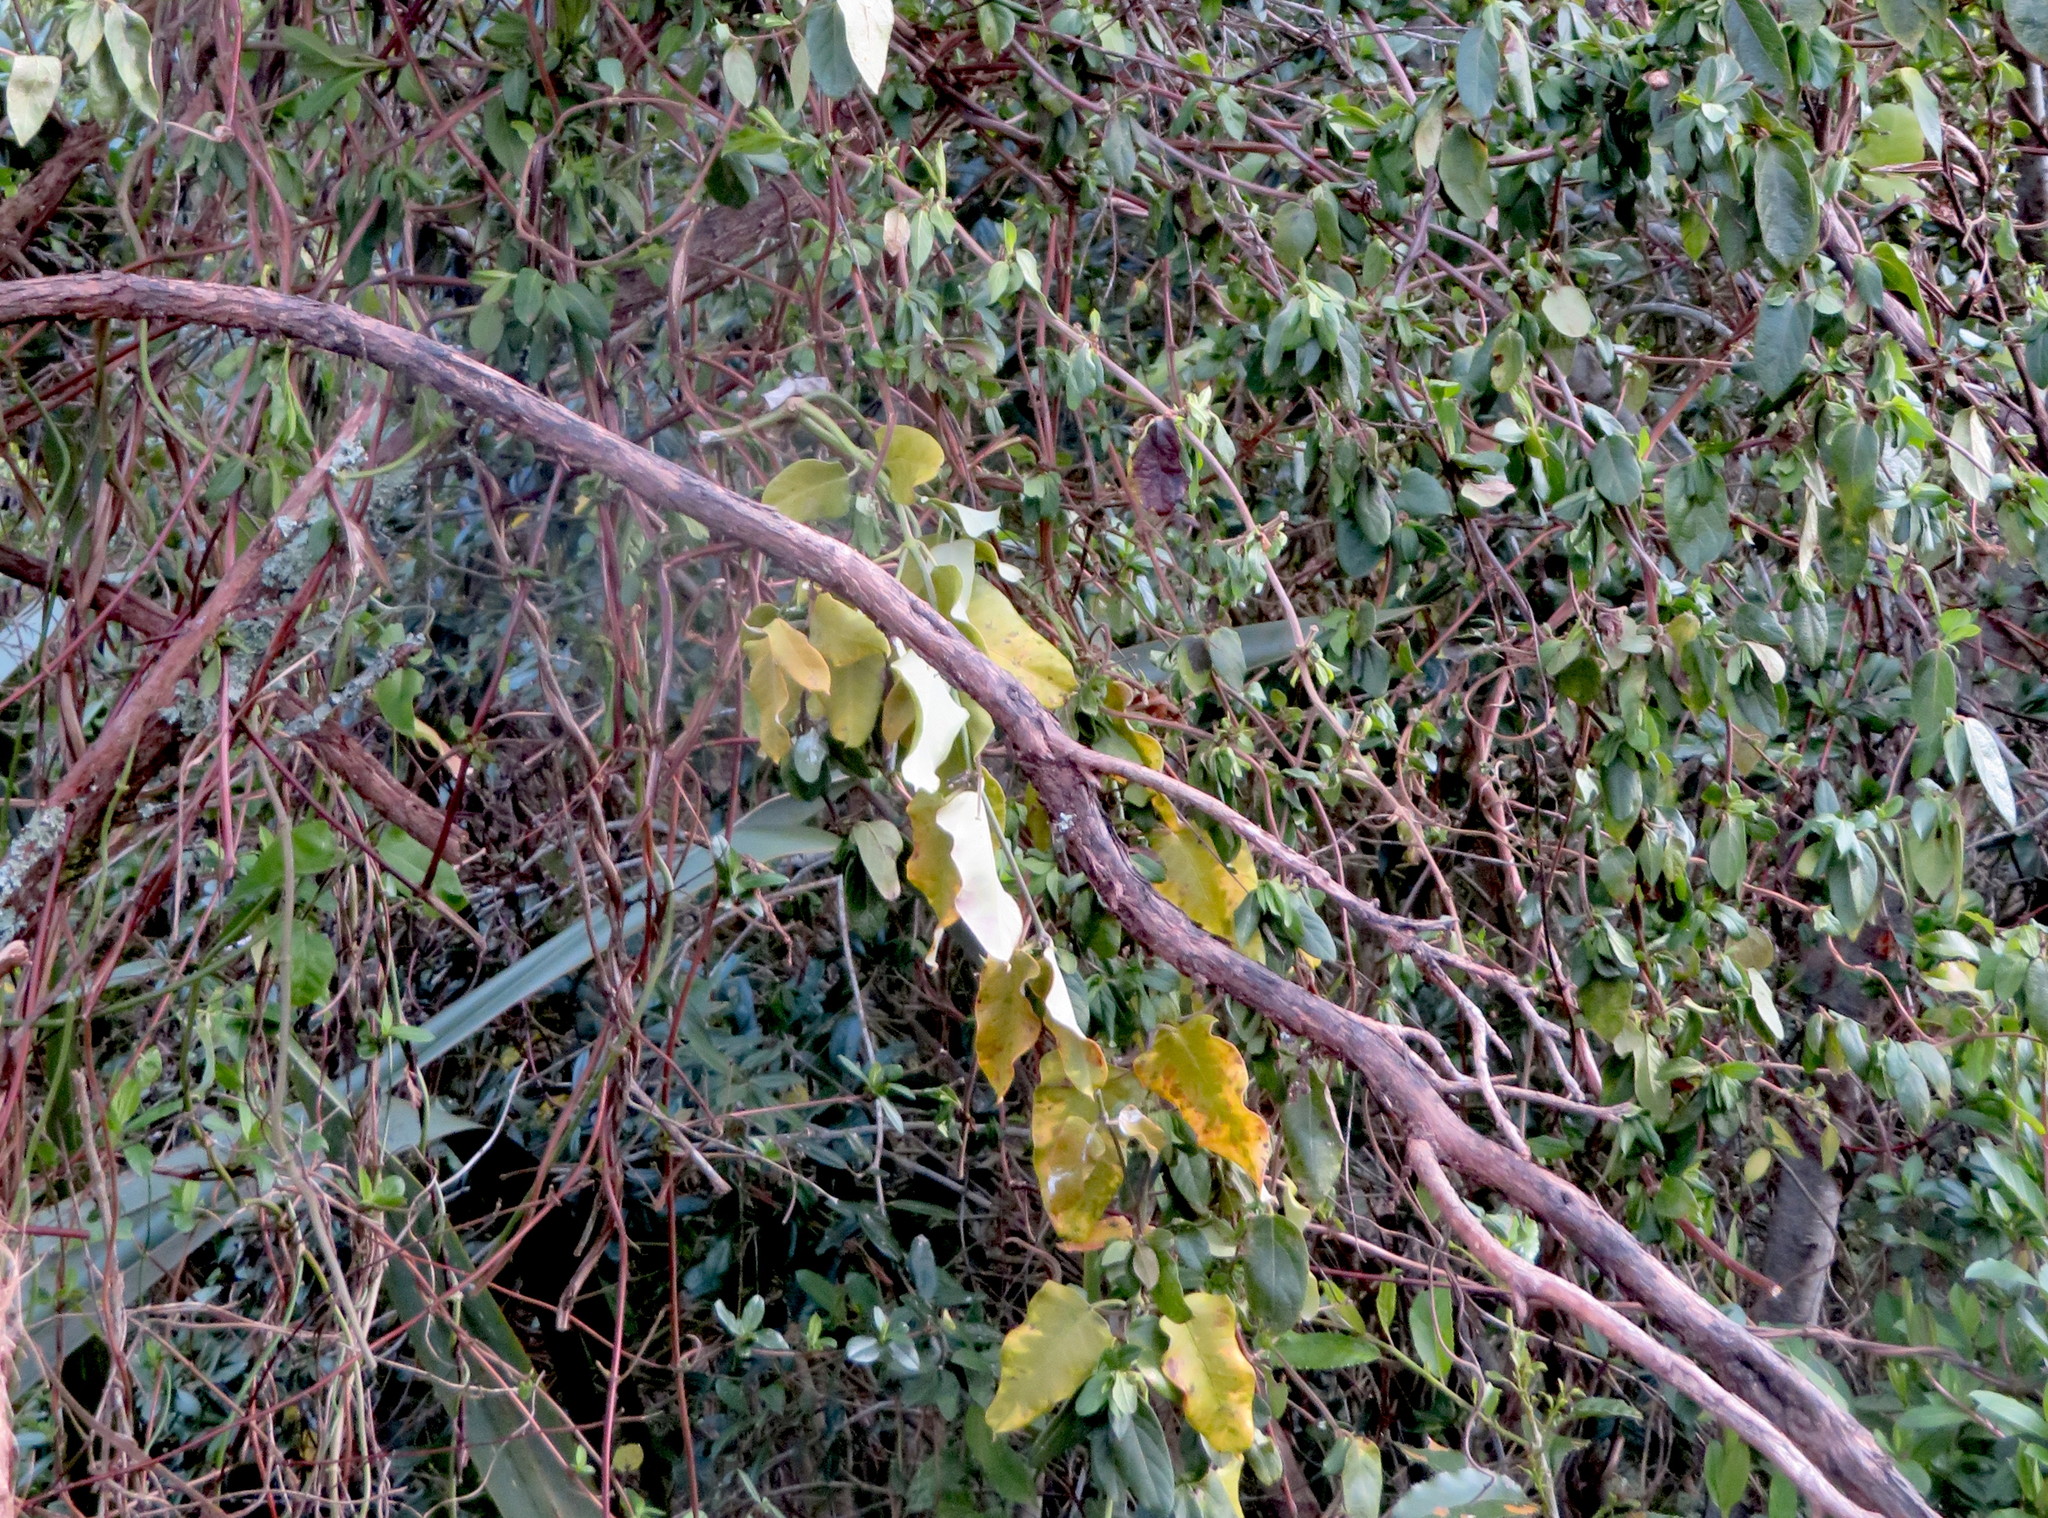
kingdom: Plantae
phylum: Tracheophyta
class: Magnoliopsida
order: Gentianales
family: Apocynaceae
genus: Araujia
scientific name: Araujia sericifera
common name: White bladderflower
